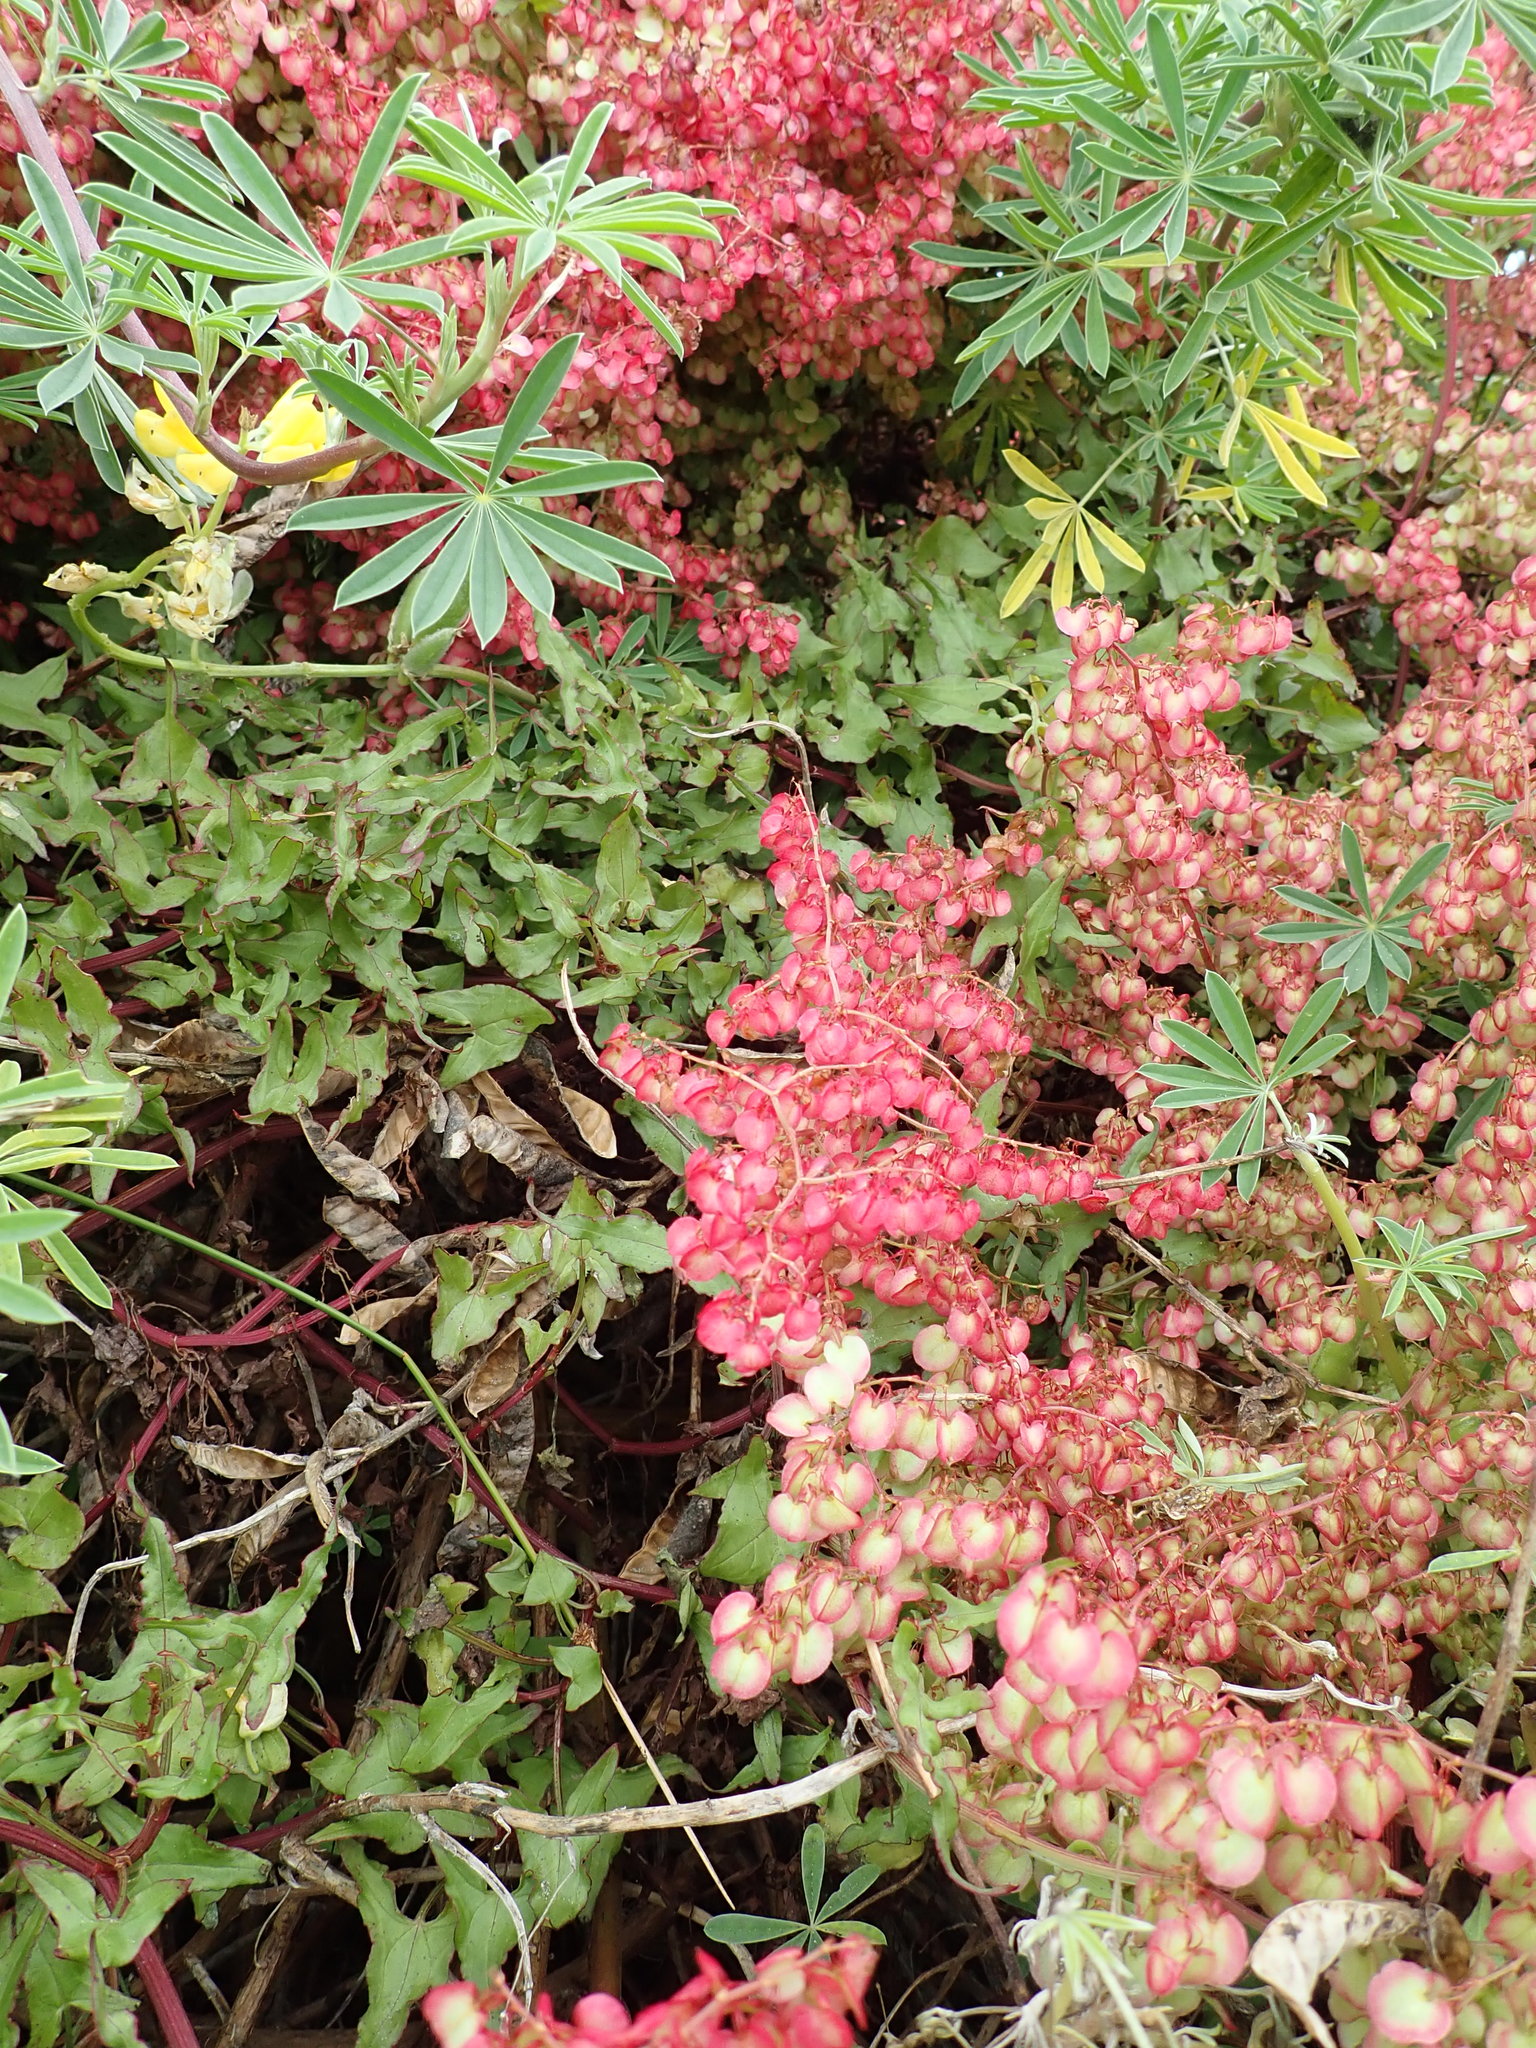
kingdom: Plantae
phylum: Tracheophyta
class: Magnoliopsida
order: Caryophyllales
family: Polygonaceae
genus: Rumex
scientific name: Rumex sagittatus
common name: Climbing dock
